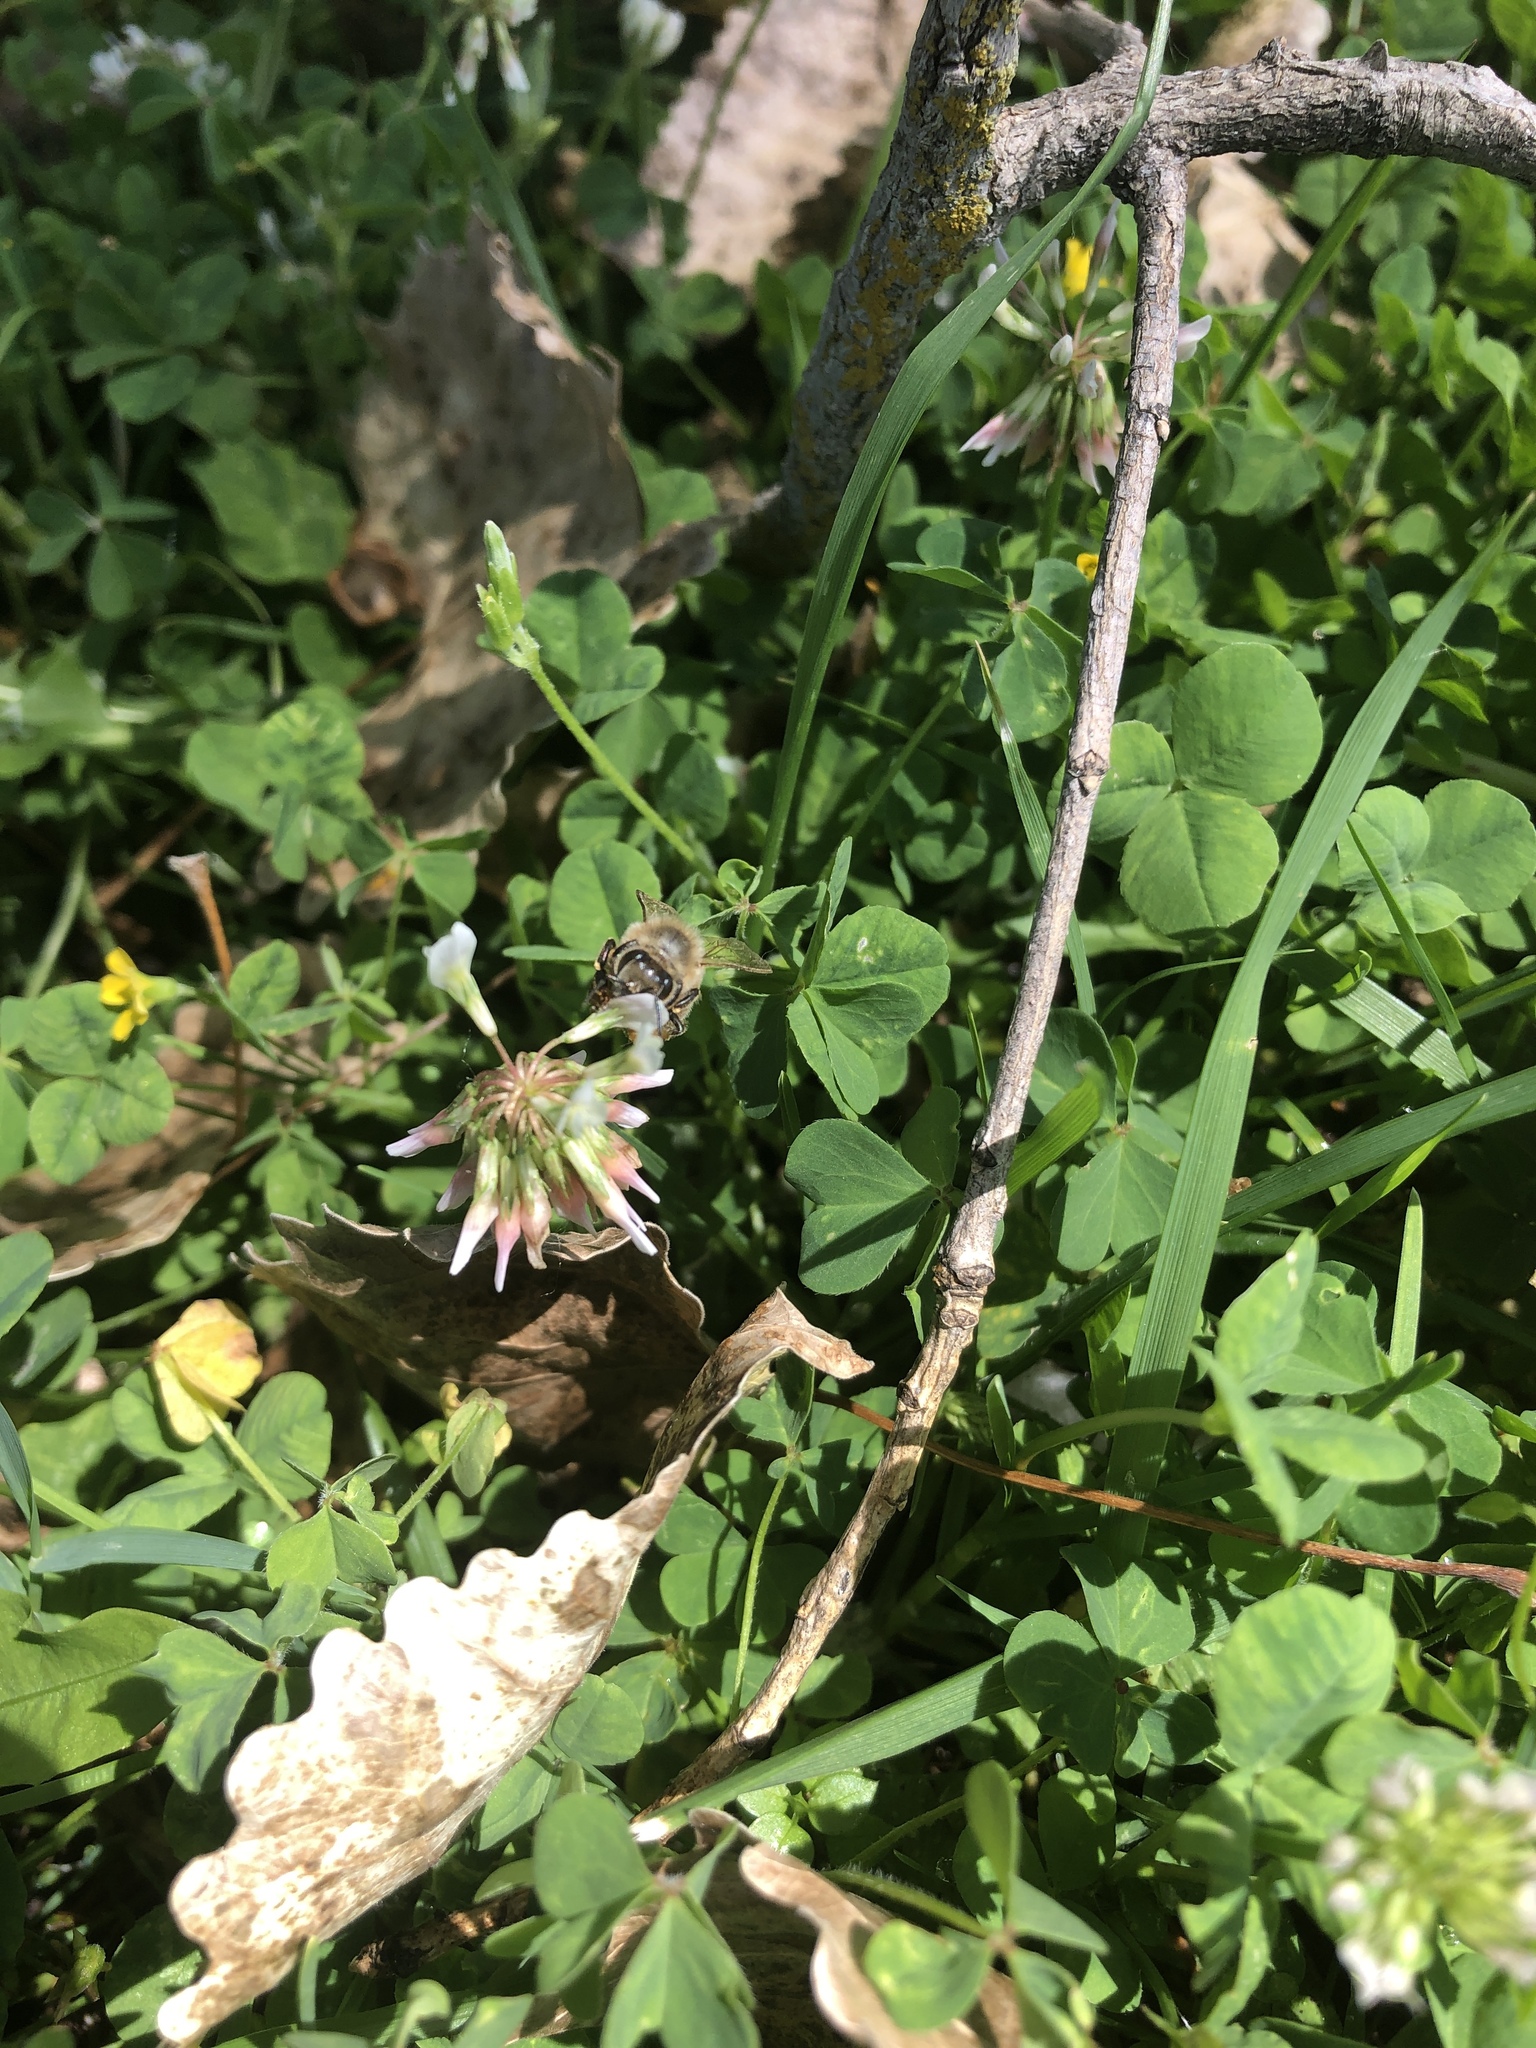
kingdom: Animalia
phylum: Arthropoda
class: Insecta
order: Hymenoptera
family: Apidae
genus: Apis
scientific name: Apis mellifera
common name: Honey bee
